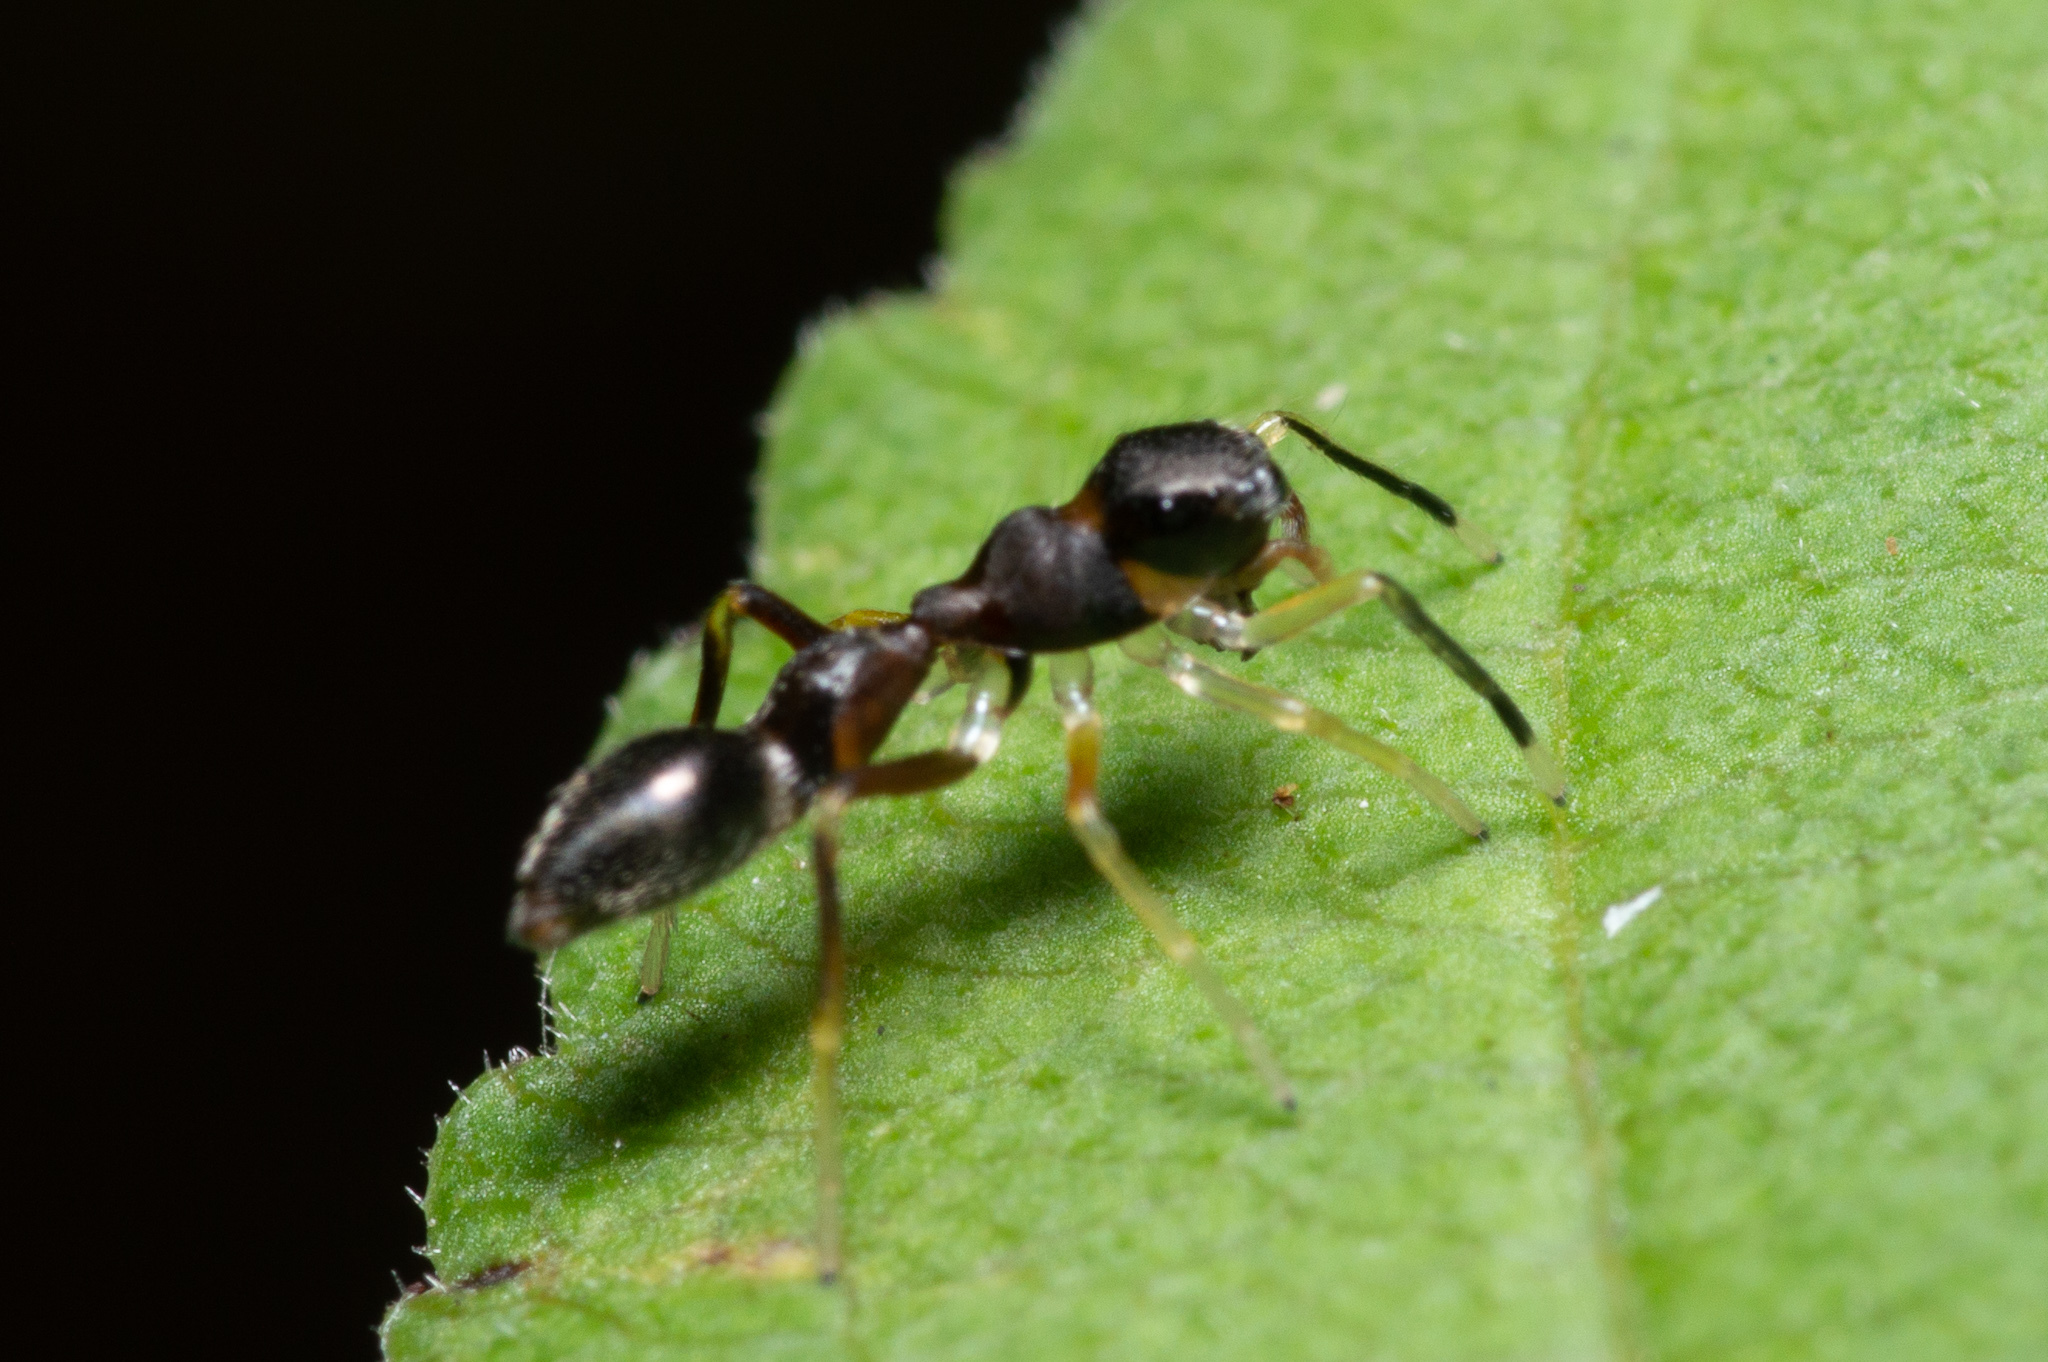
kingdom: Animalia
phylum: Arthropoda
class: Arachnida
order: Araneae
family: Salticidae
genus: Synemosyna
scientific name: Synemosyna formica
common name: Slender ant-mimic jumping spider
